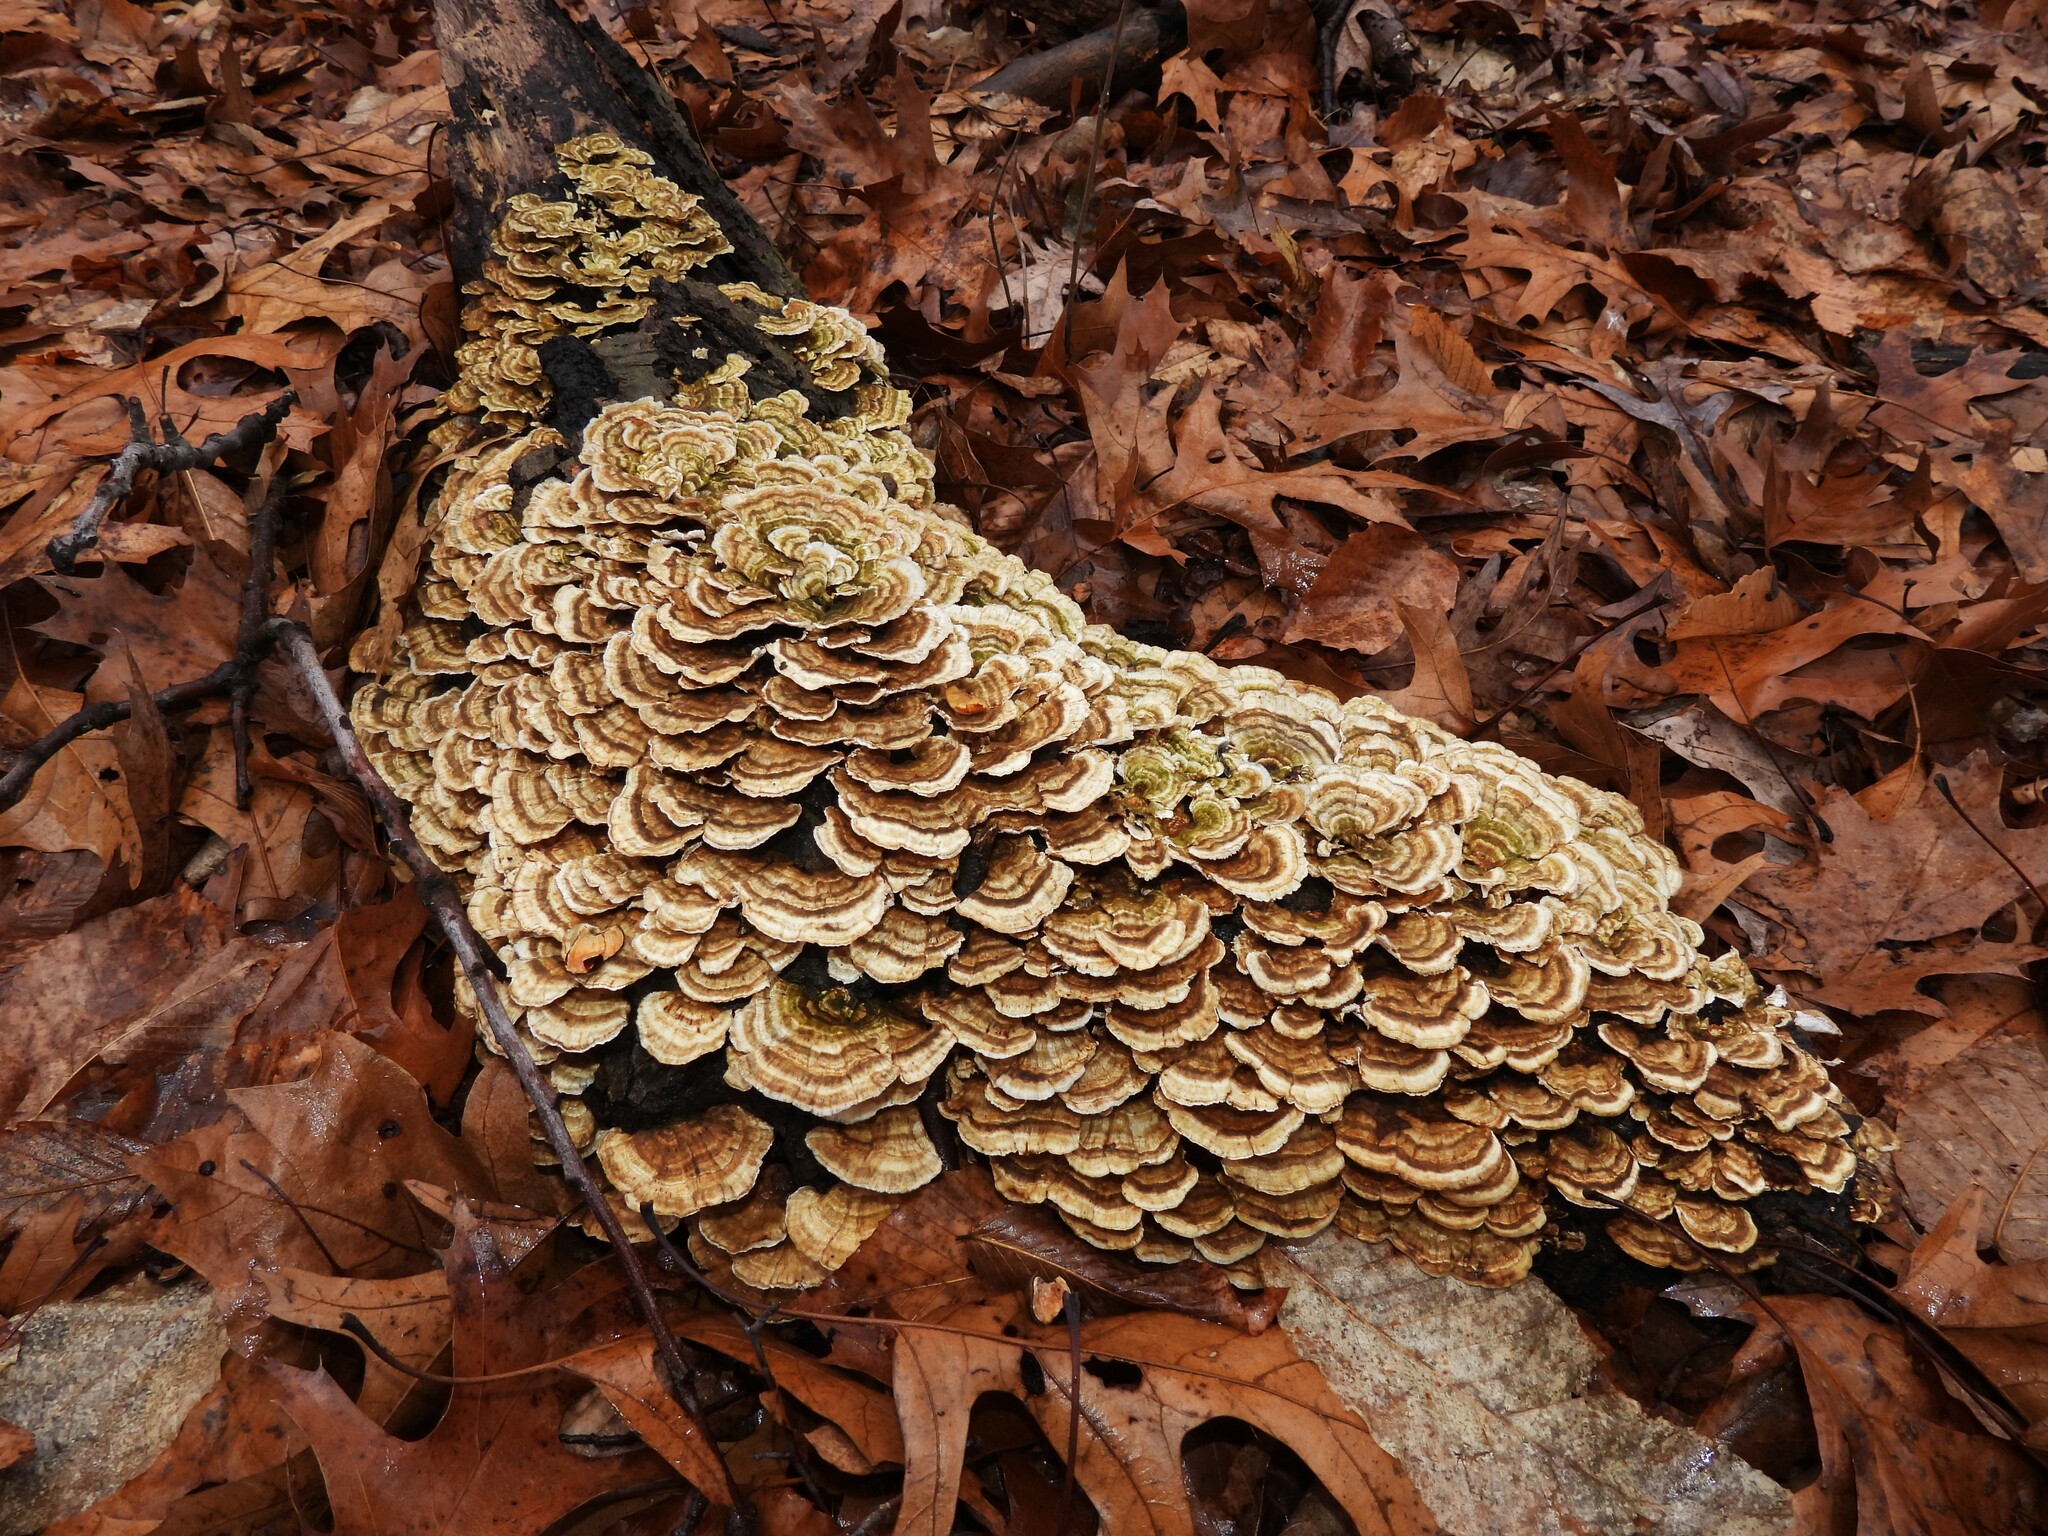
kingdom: Fungi
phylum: Basidiomycota
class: Agaricomycetes
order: Polyporales
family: Polyporaceae
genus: Trametes
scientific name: Trametes versicolor
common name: Turkeytail
